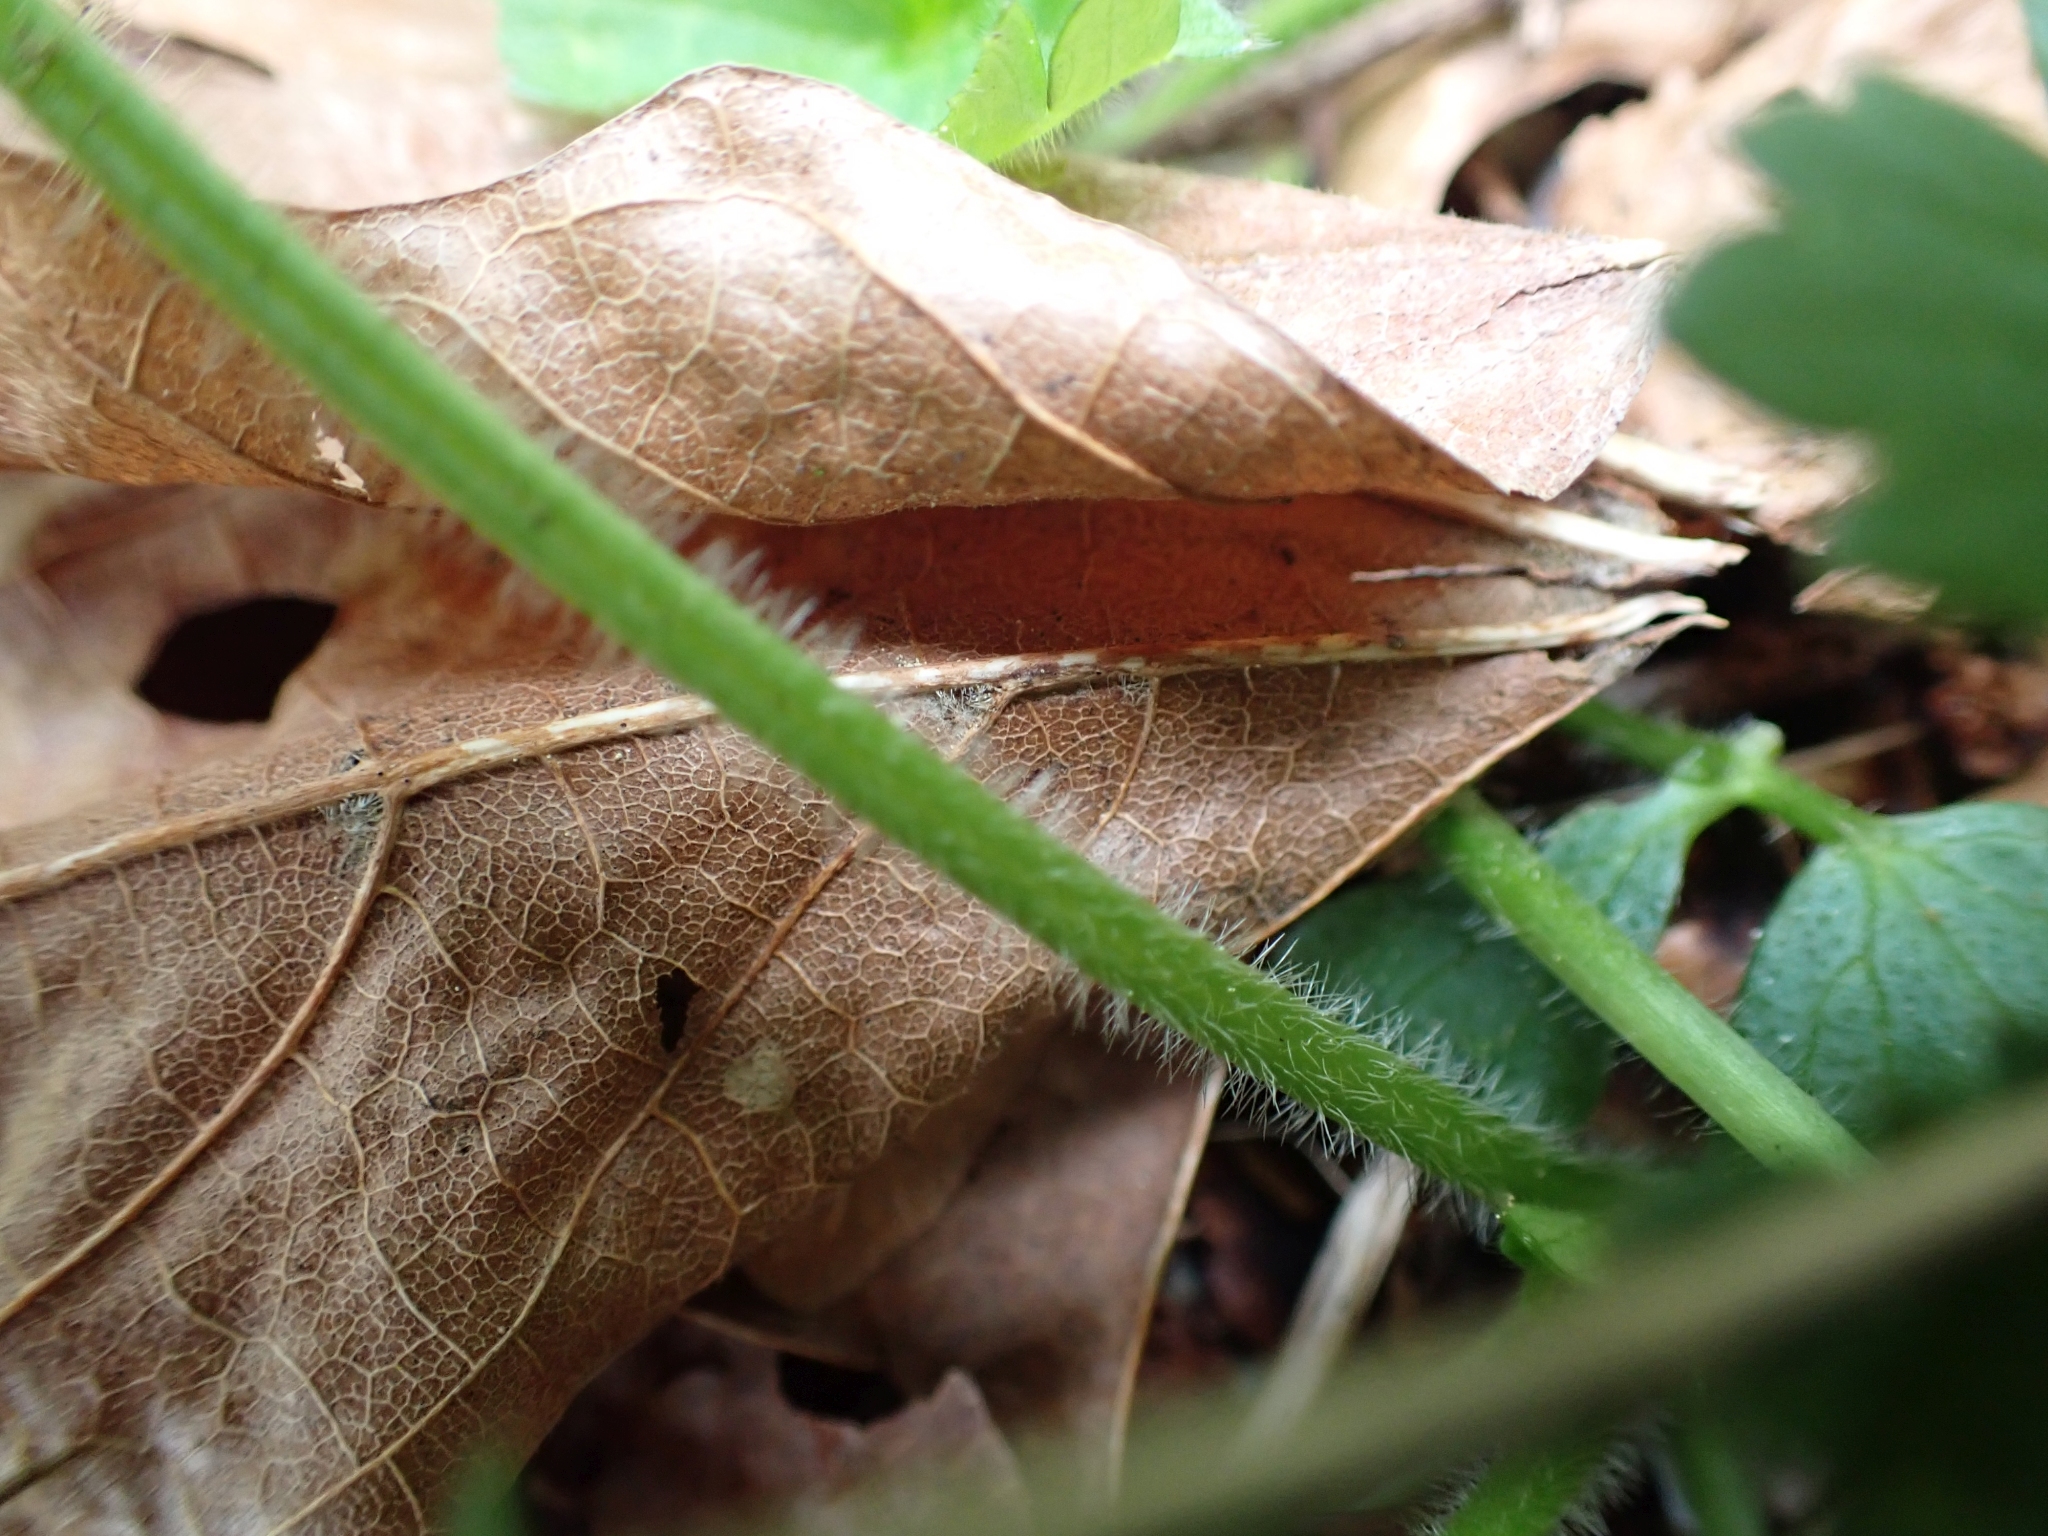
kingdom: Plantae
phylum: Tracheophyta
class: Magnoliopsida
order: Ranunculales
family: Ranunculaceae
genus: Ranunculus
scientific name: Ranunculus repens
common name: Creeping buttercup
